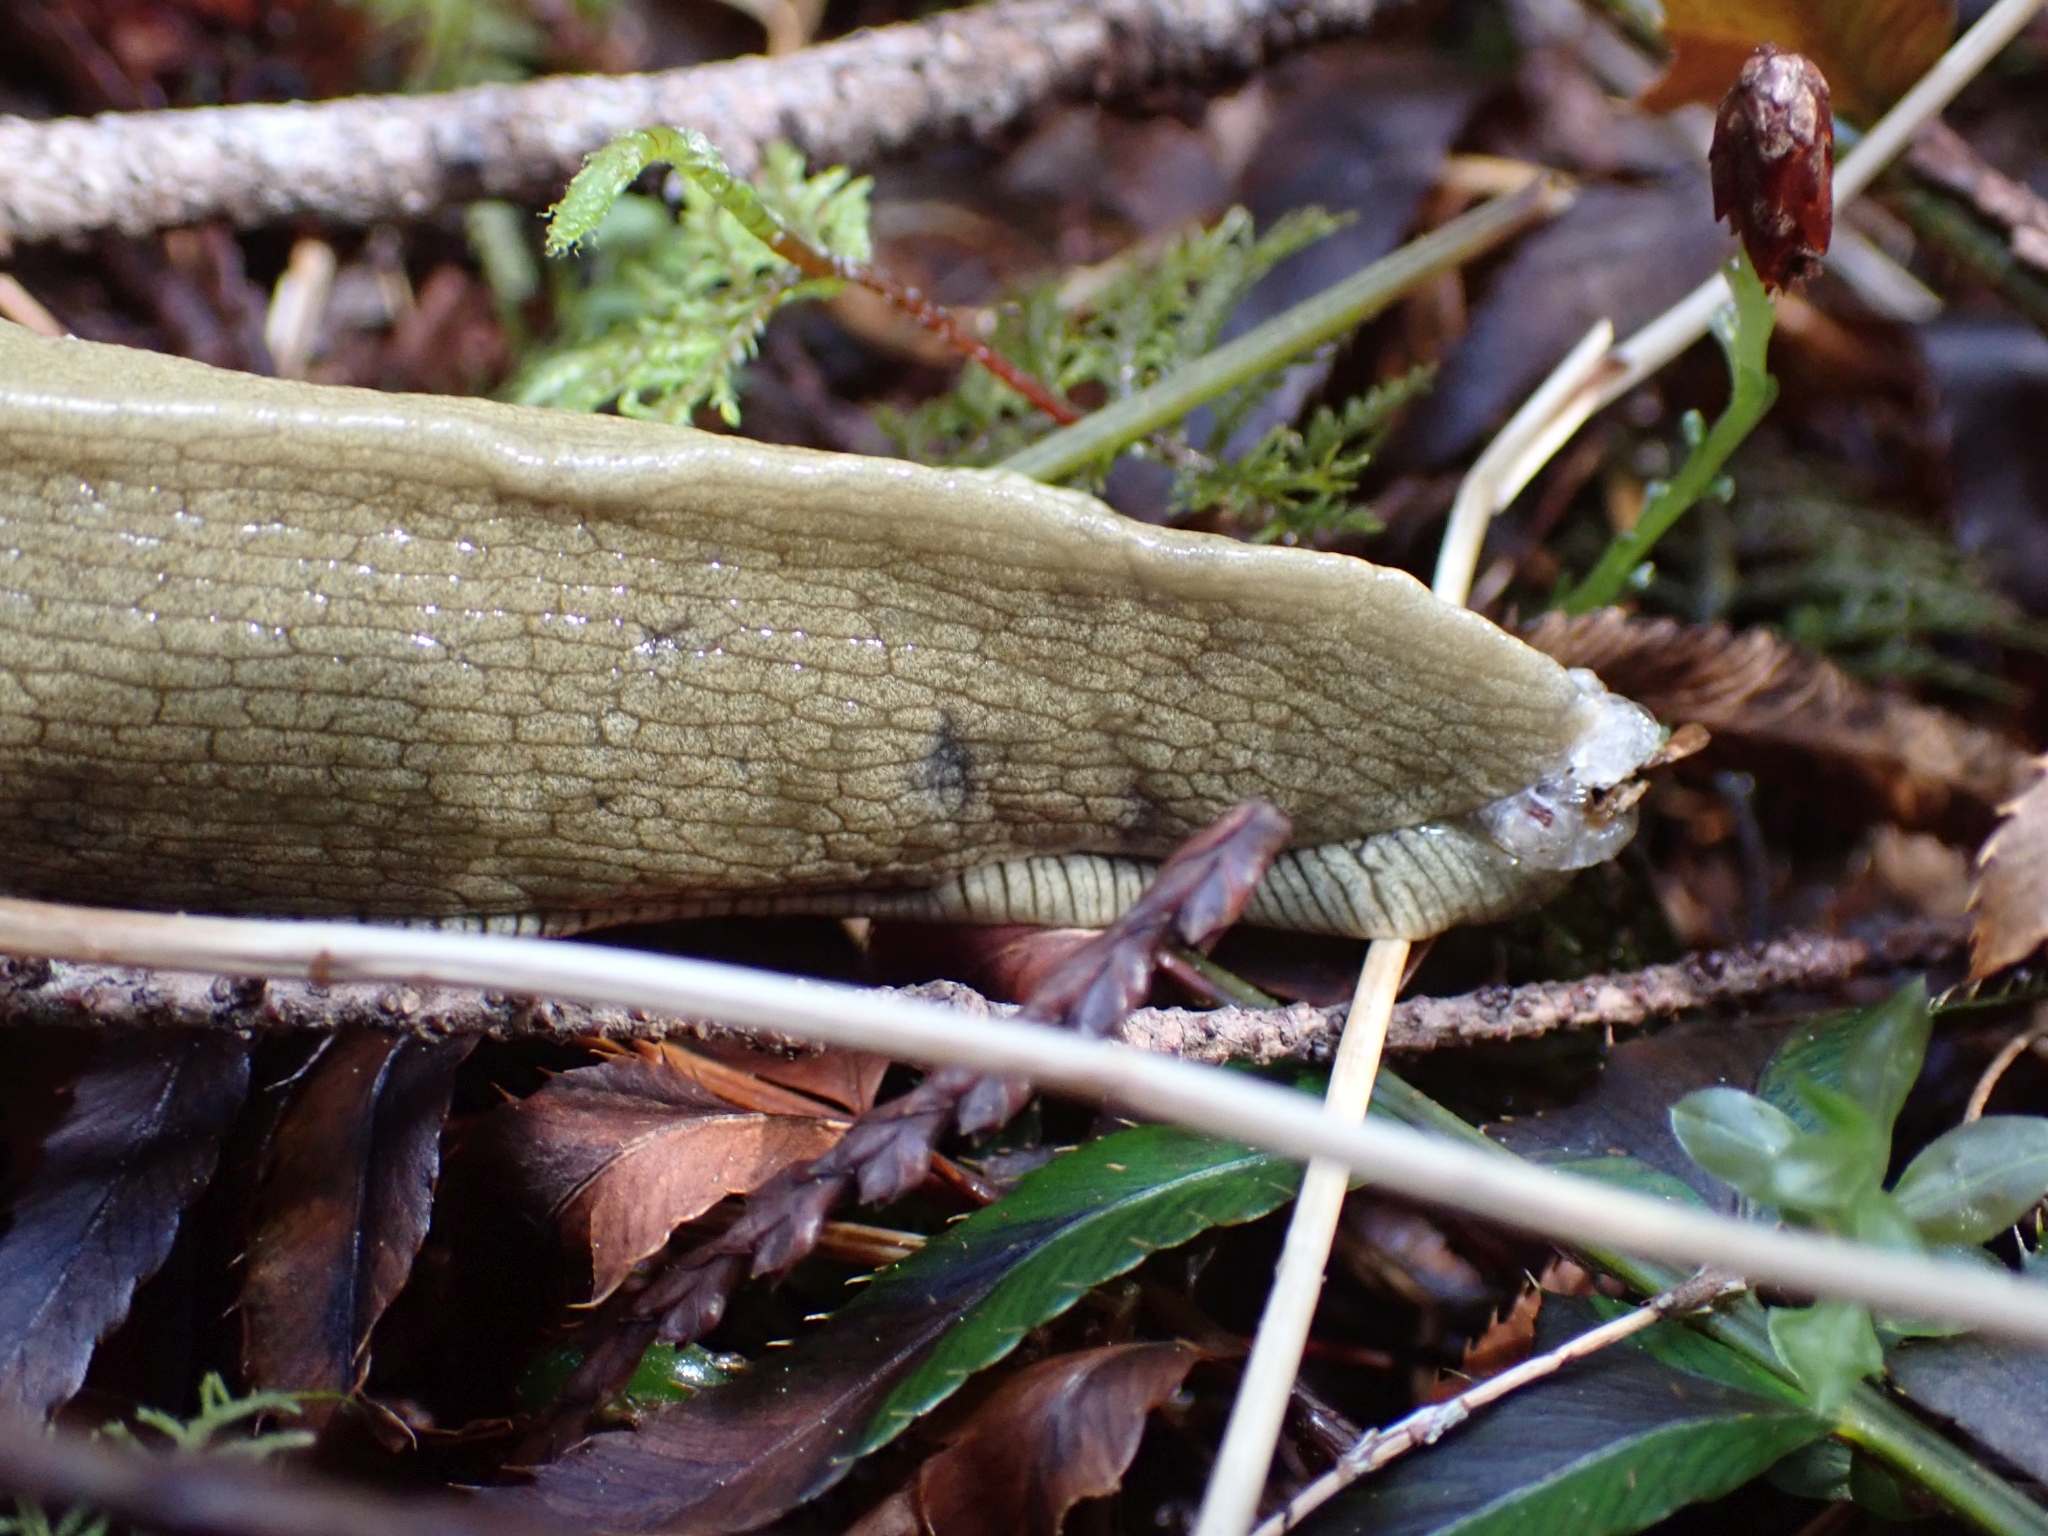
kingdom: Animalia
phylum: Mollusca
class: Gastropoda
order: Stylommatophora
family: Ariolimacidae
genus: Ariolimax
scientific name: Ariolimax columbianus
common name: Pacific banana slug
